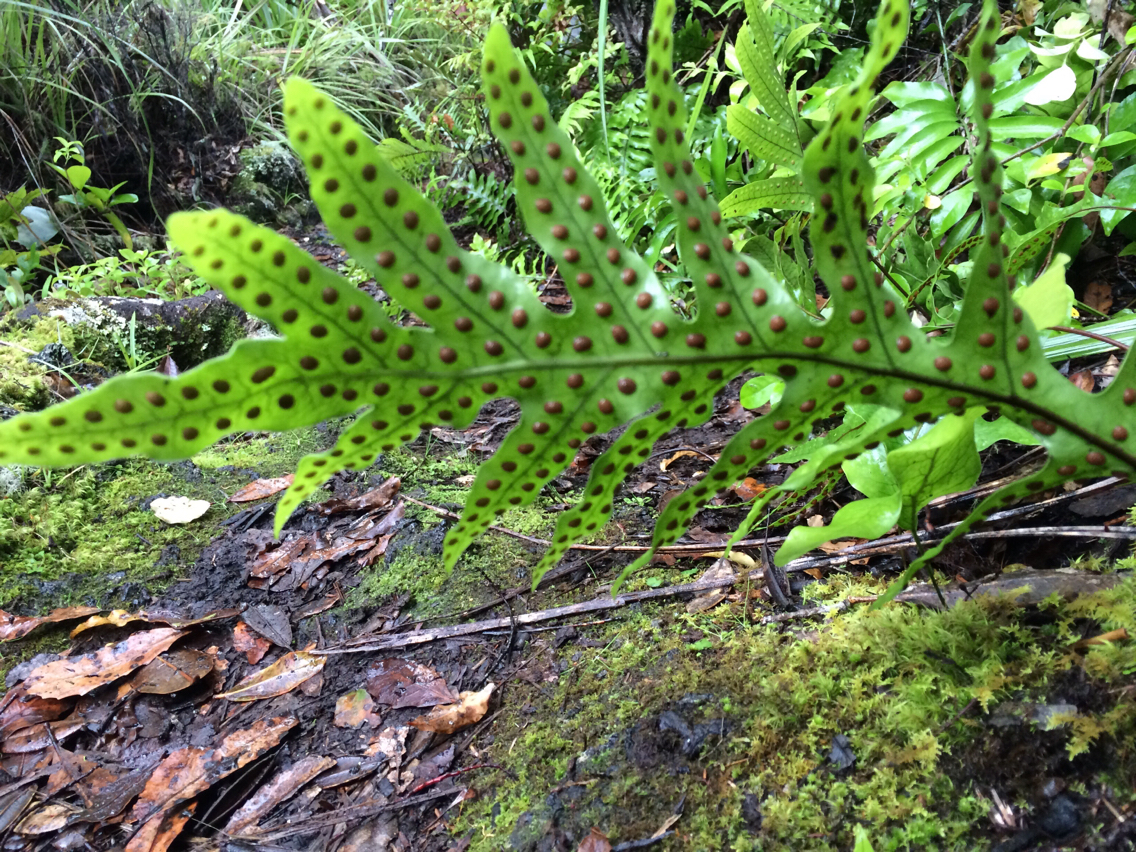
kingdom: Plantae
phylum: Tracheophyta
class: Polypodiopsida
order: Polypodiales
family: Polypodiaceae
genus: Lecanopteris
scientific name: Lecanopteris pustulata
